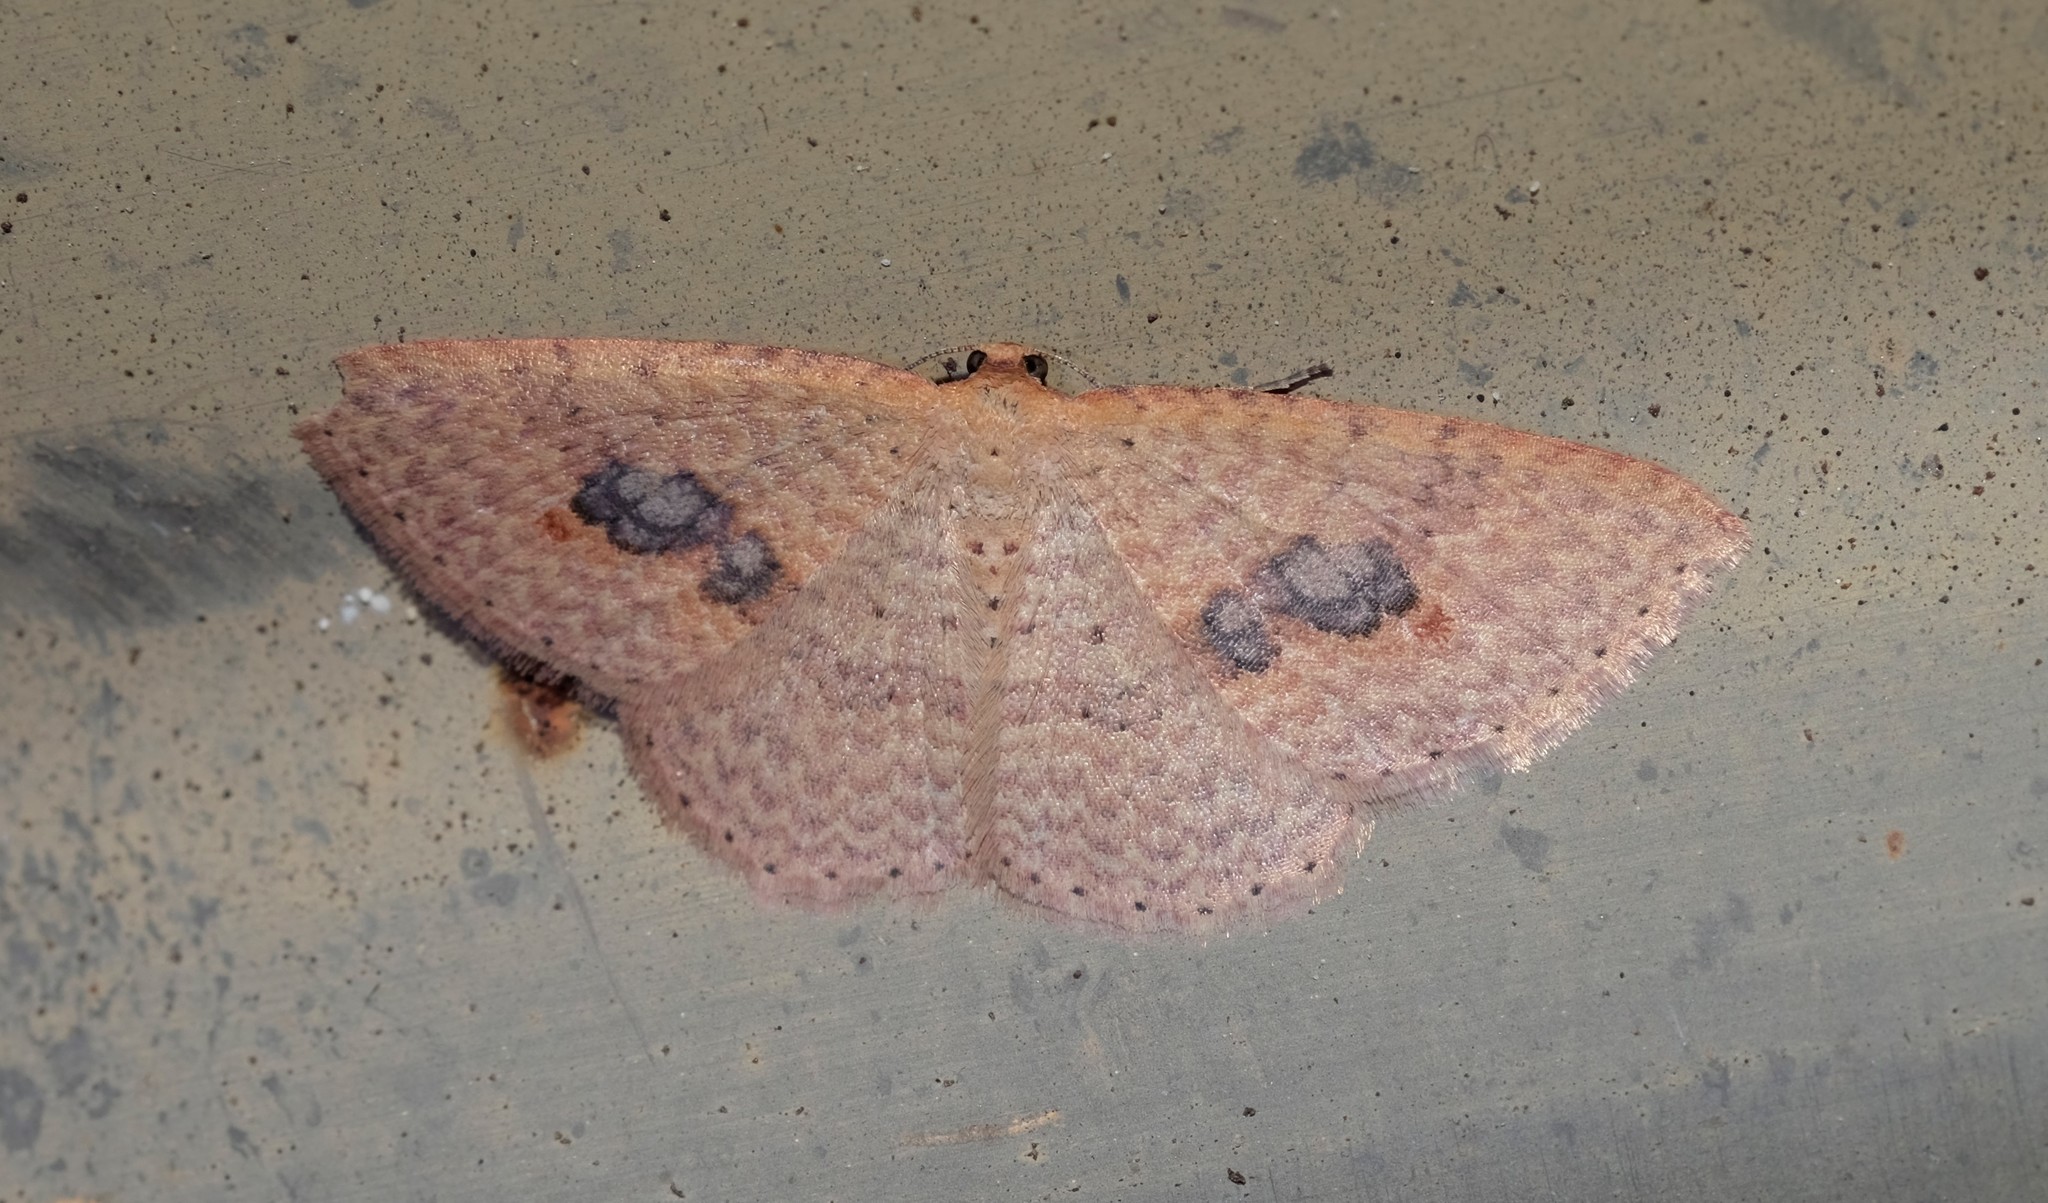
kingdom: Animalia
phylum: Arthropoda
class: Insecta
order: Lepidoptera
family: Geometridae
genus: Epicyme
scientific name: Epicyme rubropunctaria
